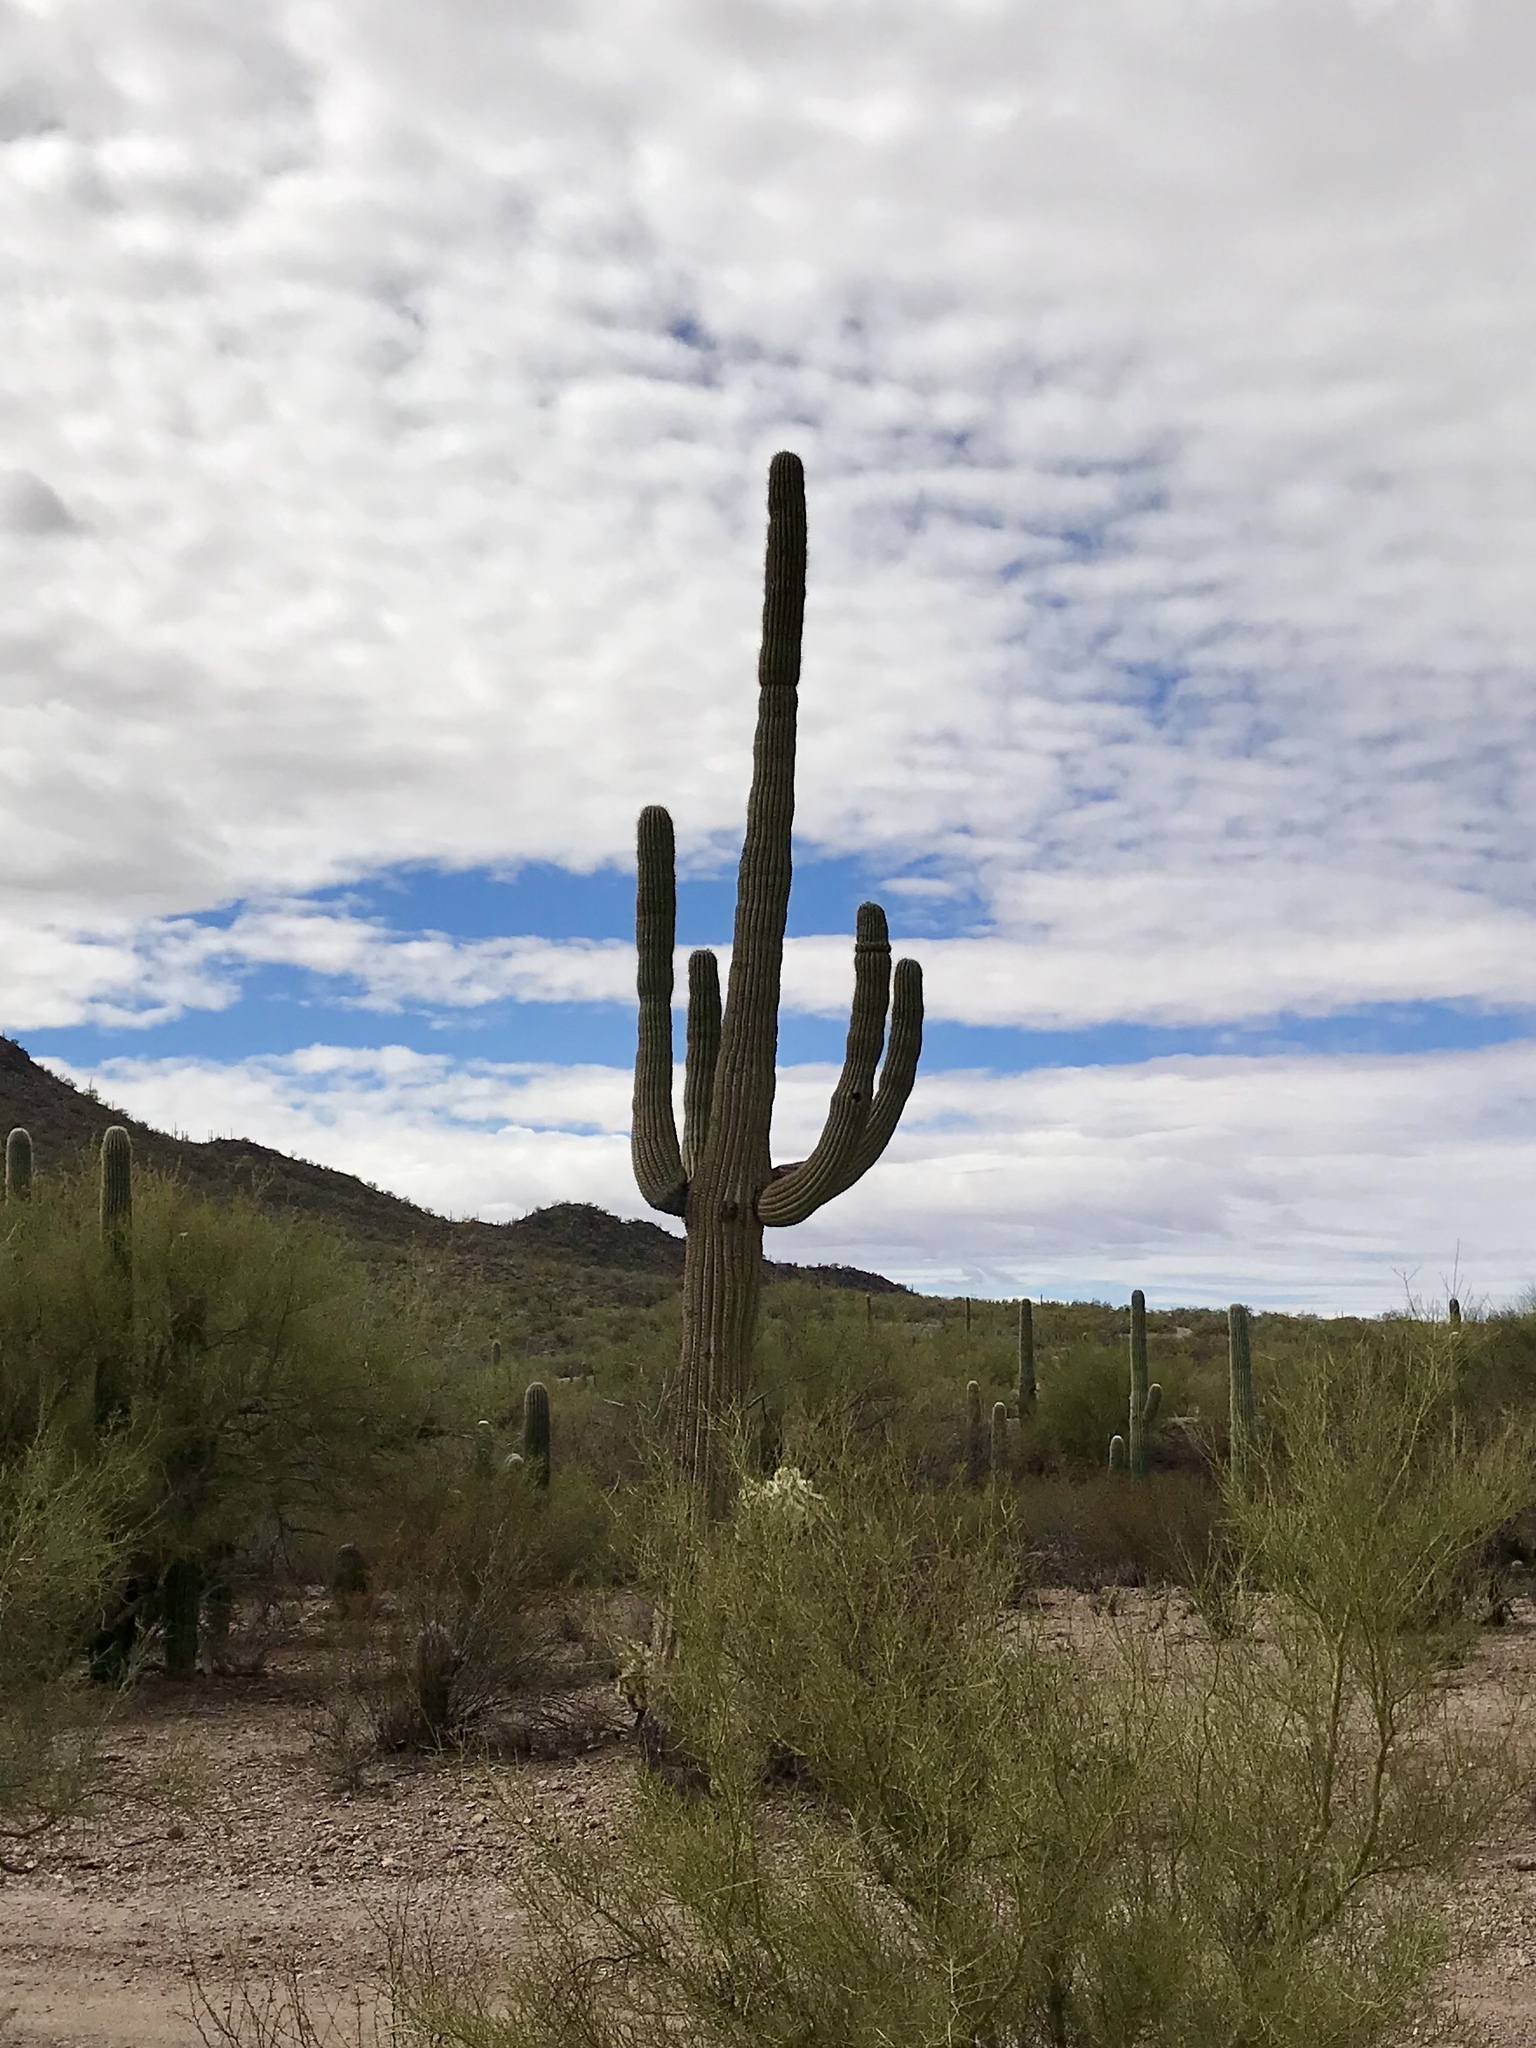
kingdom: Plantae
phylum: Tracheophyta
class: Magnoliopsida
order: Caryophyllales
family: Cactaceae
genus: Carnegiea
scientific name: Carnegiea gigantea
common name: Saguaro
